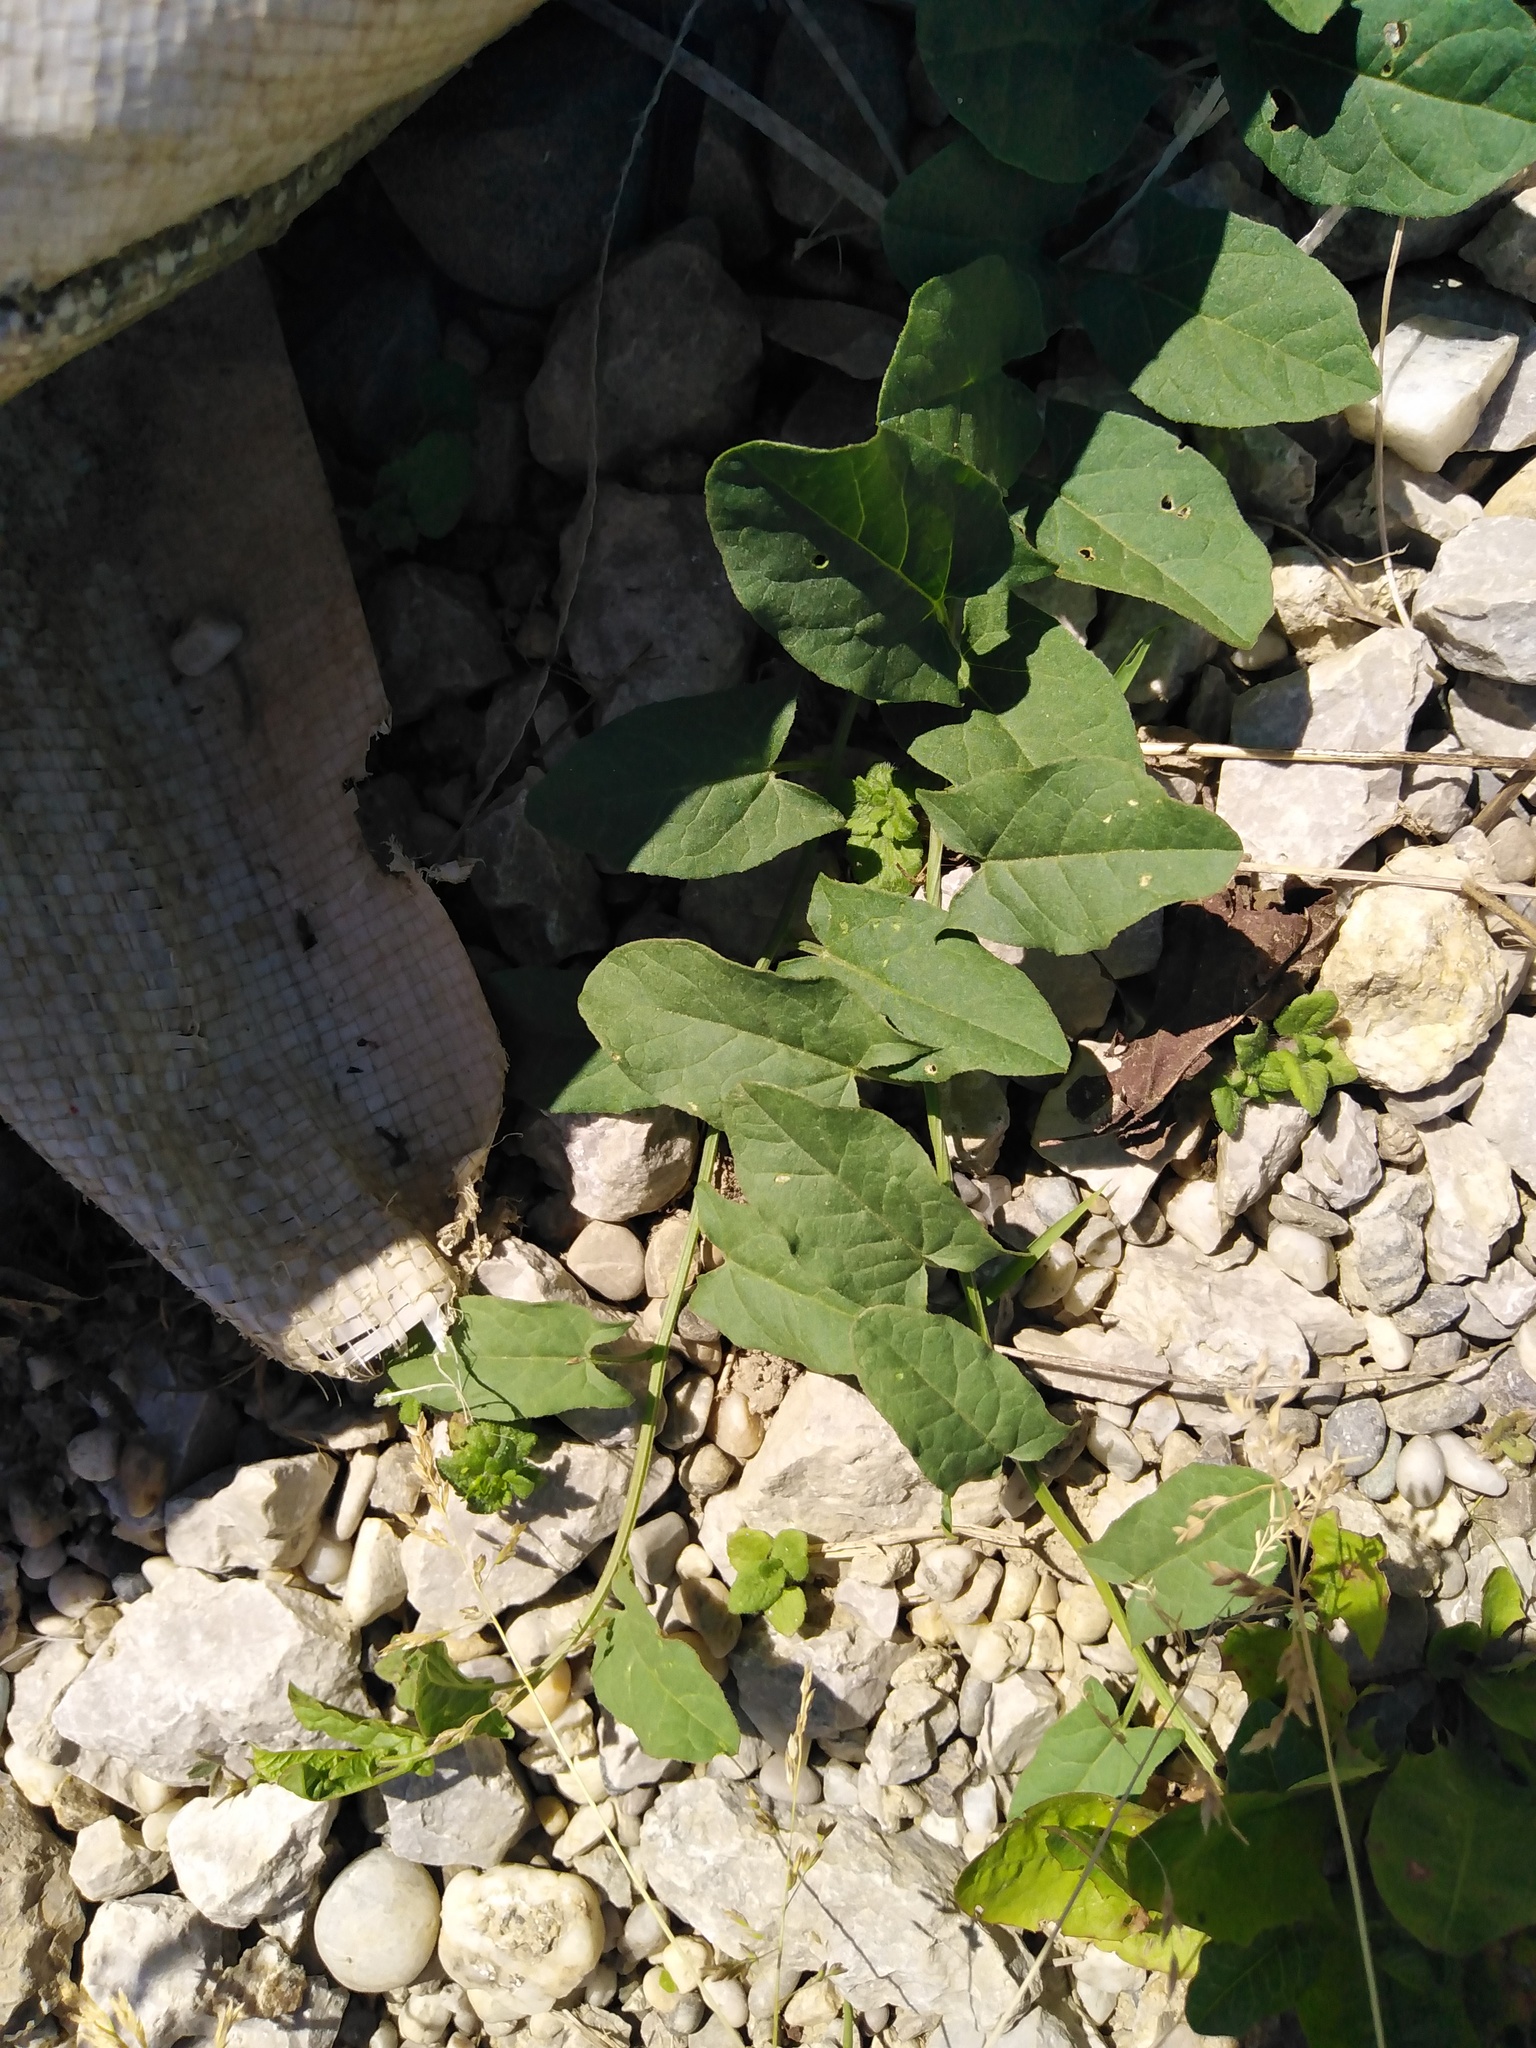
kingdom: Plantae
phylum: Tracheophyta
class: Magnoliopsida
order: Solanales
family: Convolvulaceae
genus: Convolvulus
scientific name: Convolvulus arvensis
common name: Field bindweed
